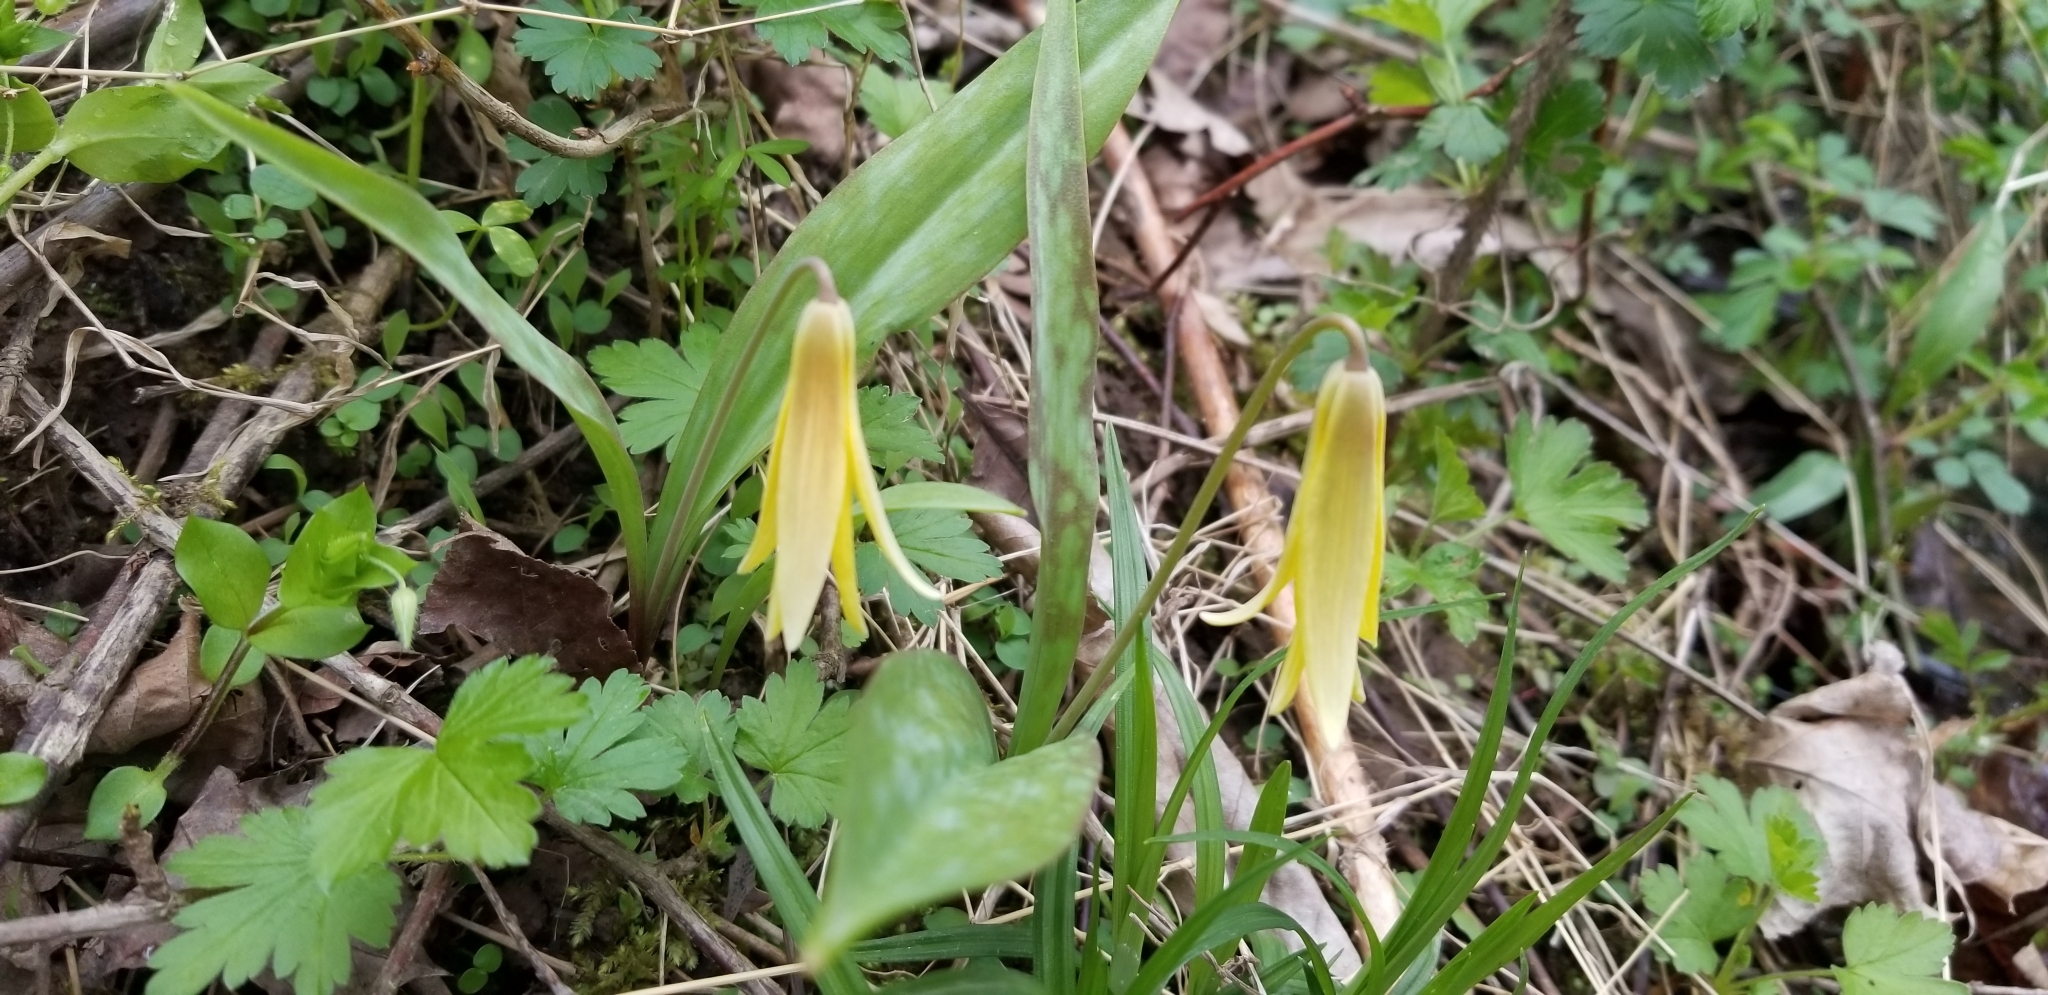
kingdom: Plantae
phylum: Tracheophyta
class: Liliopsida
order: Liliales
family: Liliaceae
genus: Erythronium
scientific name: Erythronium americanum
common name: Yellow adder's-tongue
